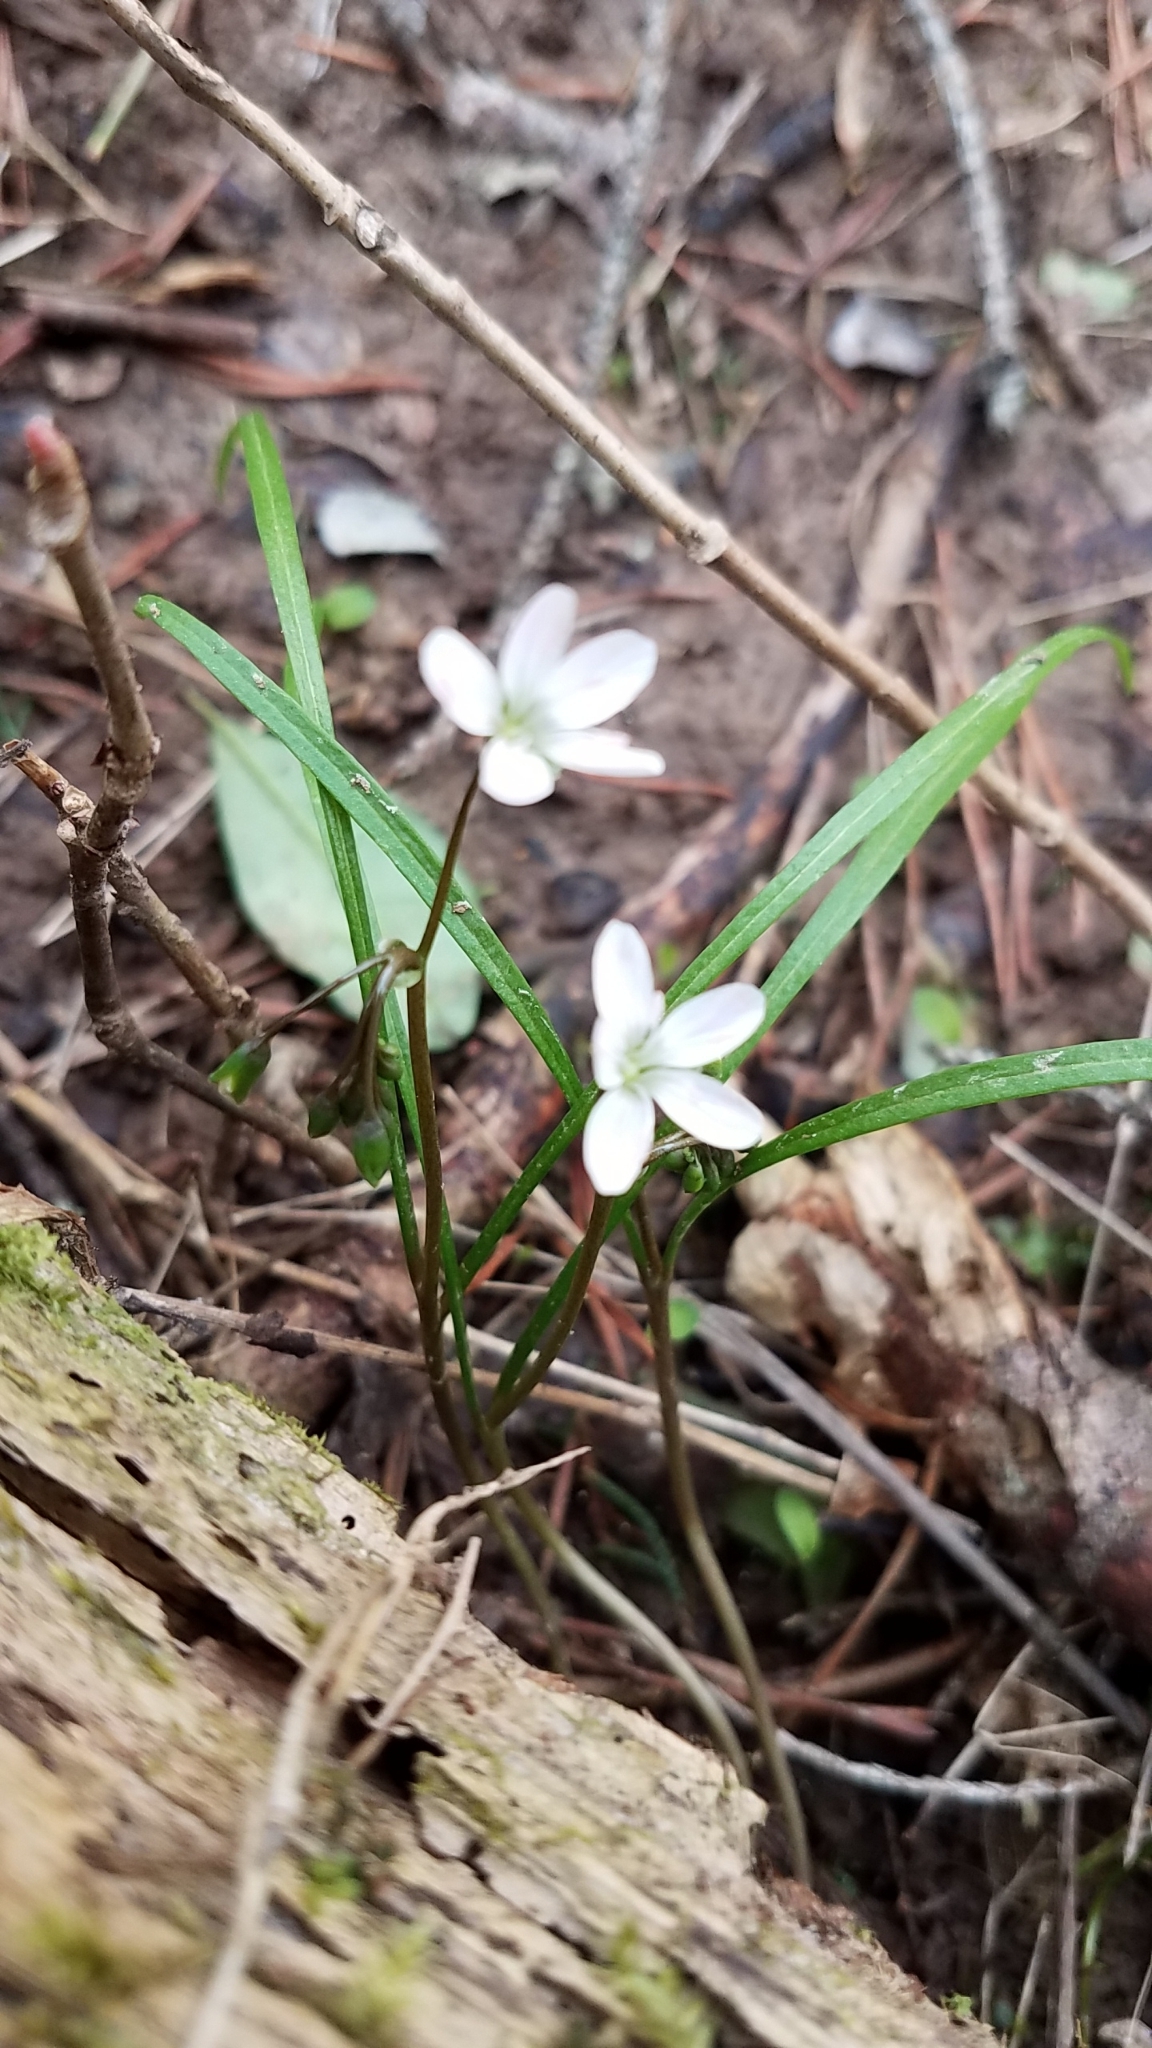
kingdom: Plantae
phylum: Tracheophyta
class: Magnoliopsida
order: Caryophyllales
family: Montiaceae
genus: Claytonia
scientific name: Claytonia virginica
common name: Virginia springbeauty
